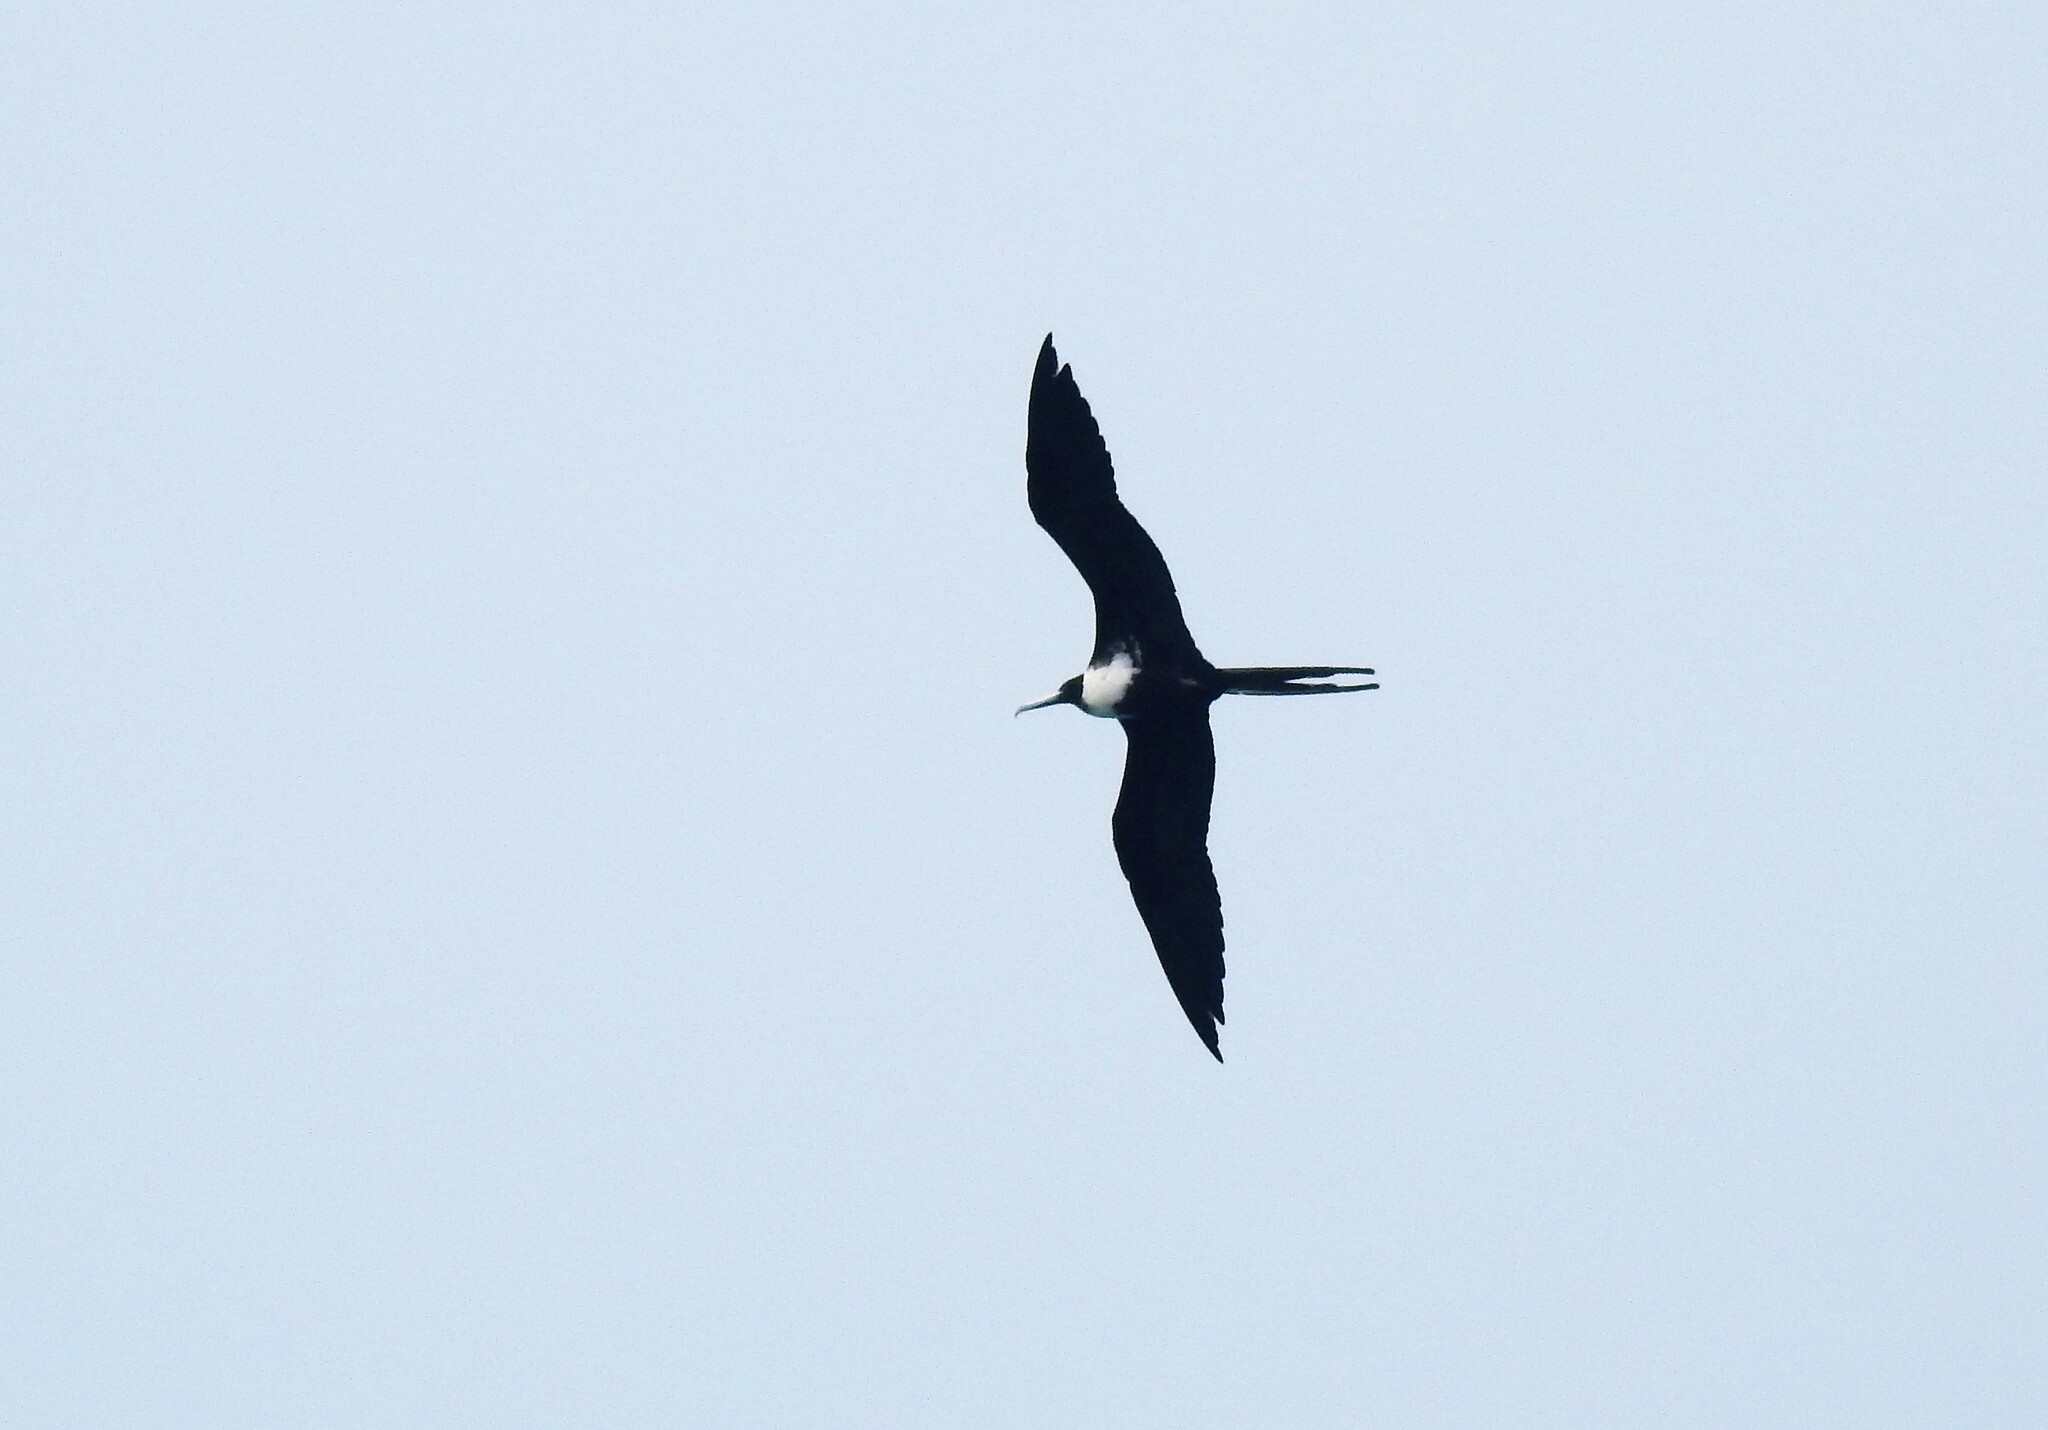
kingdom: Animalia
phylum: Chordata
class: Aves
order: Suliformes
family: Fregatidae
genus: Fregata
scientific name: Fregata magnificens
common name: Magnificent frigatebird
